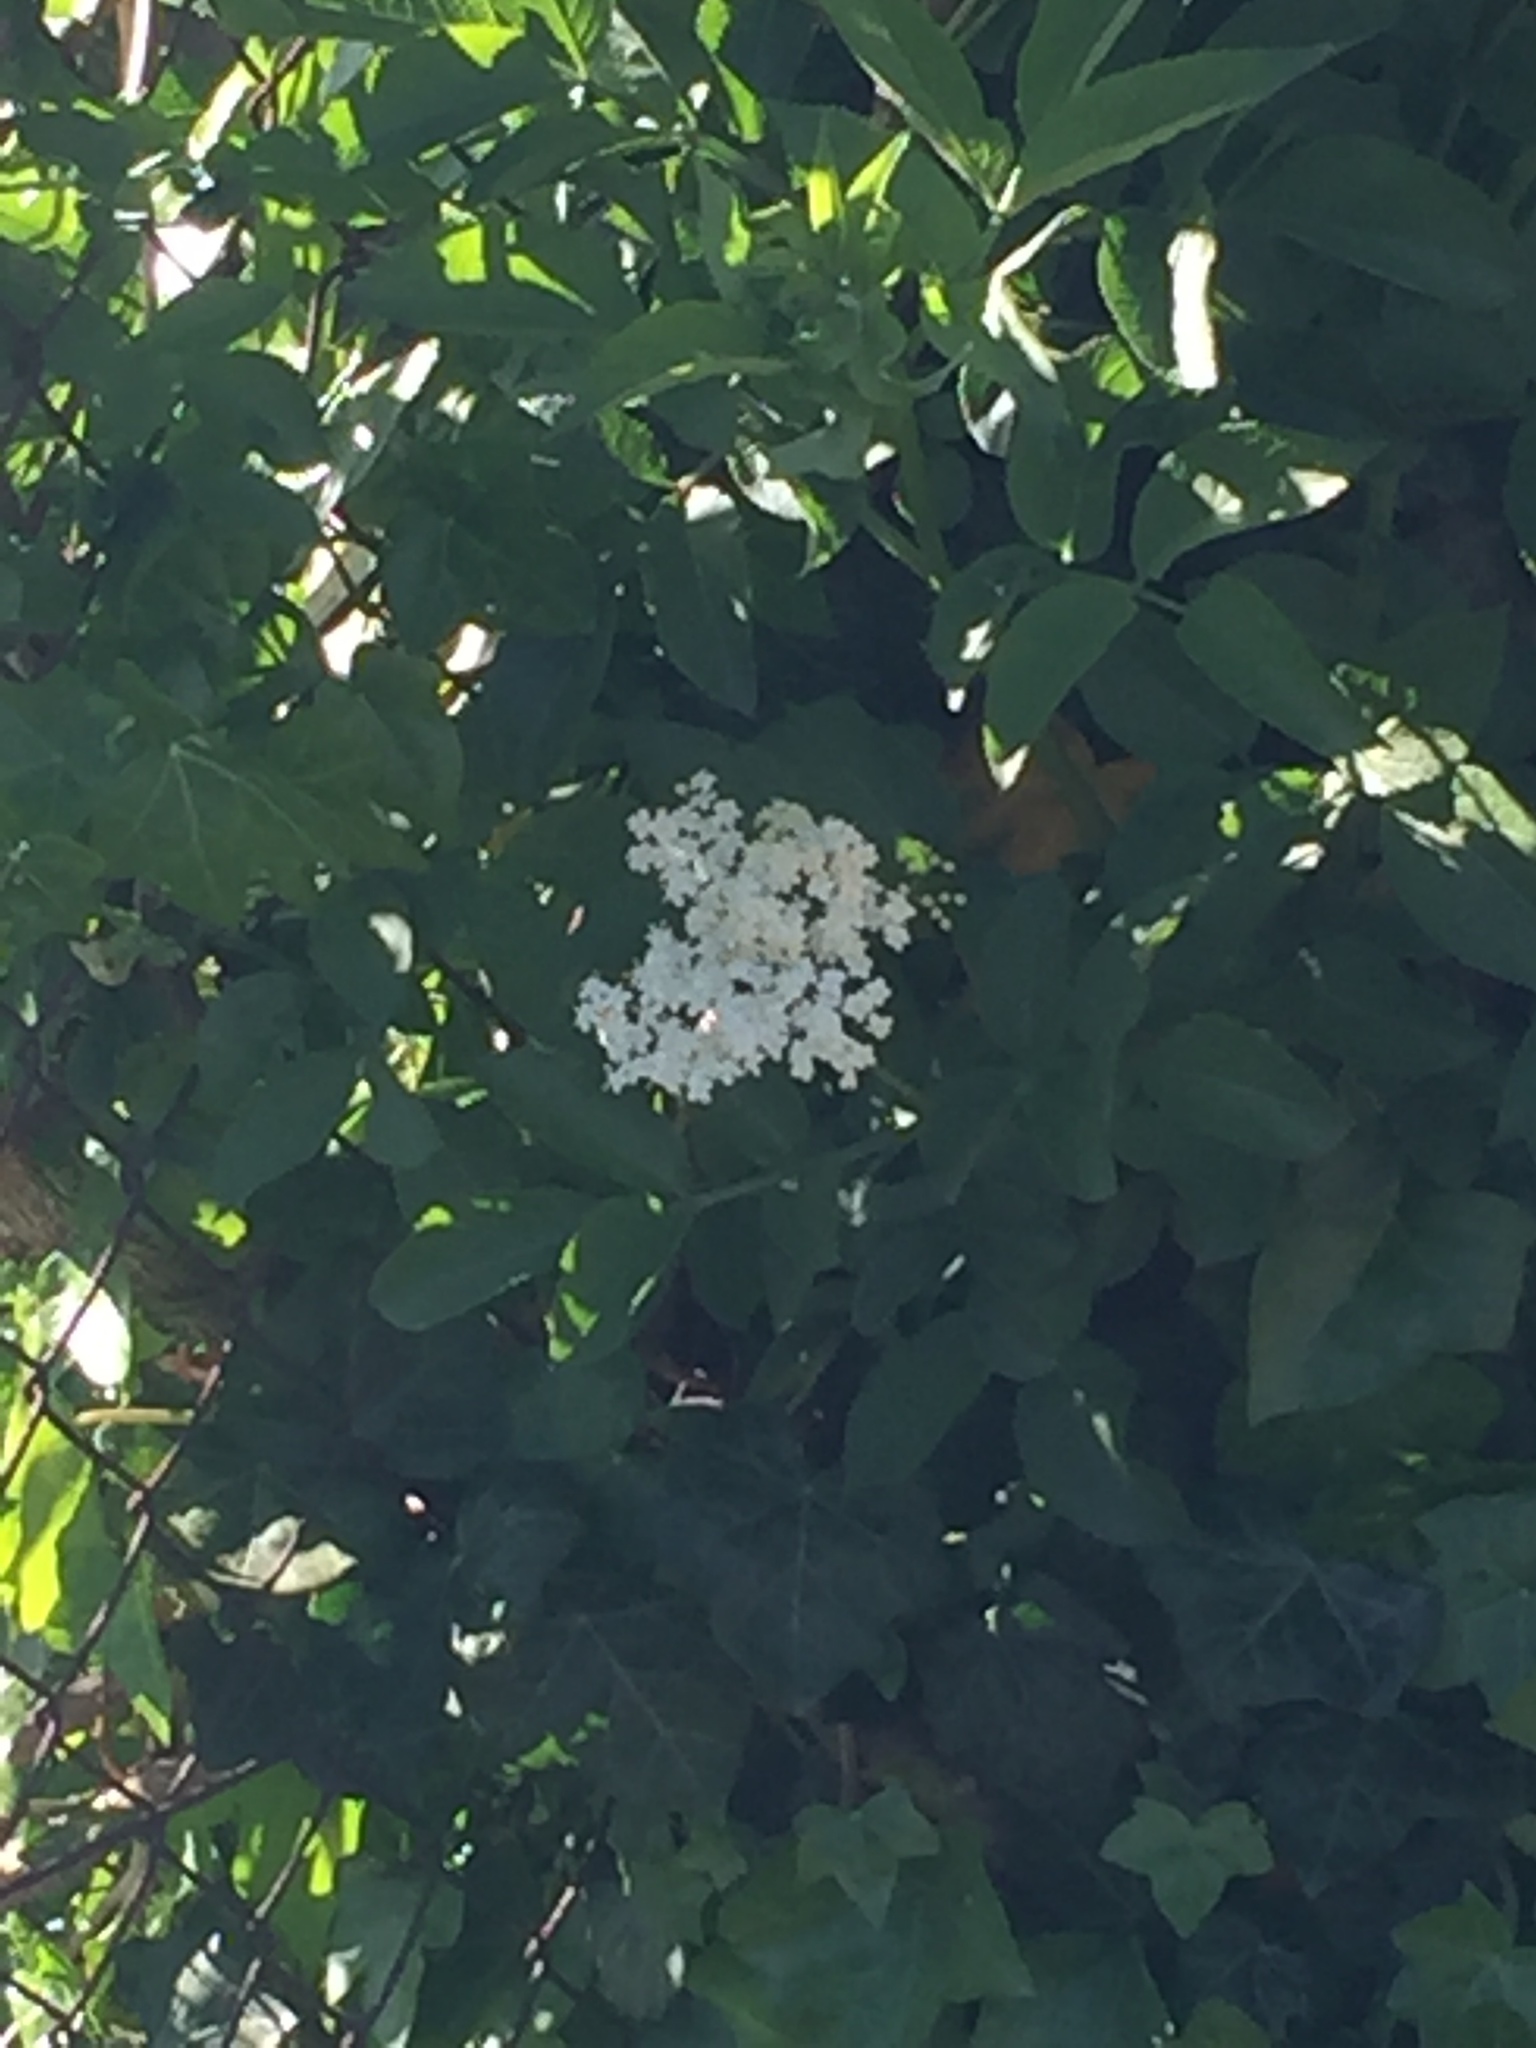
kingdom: Plantae
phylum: Tracheophyta
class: Magnoliopsida
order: Dipsacales
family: Viburnaceae
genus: Sambucus
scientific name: Sambucus nigra
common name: Elder
